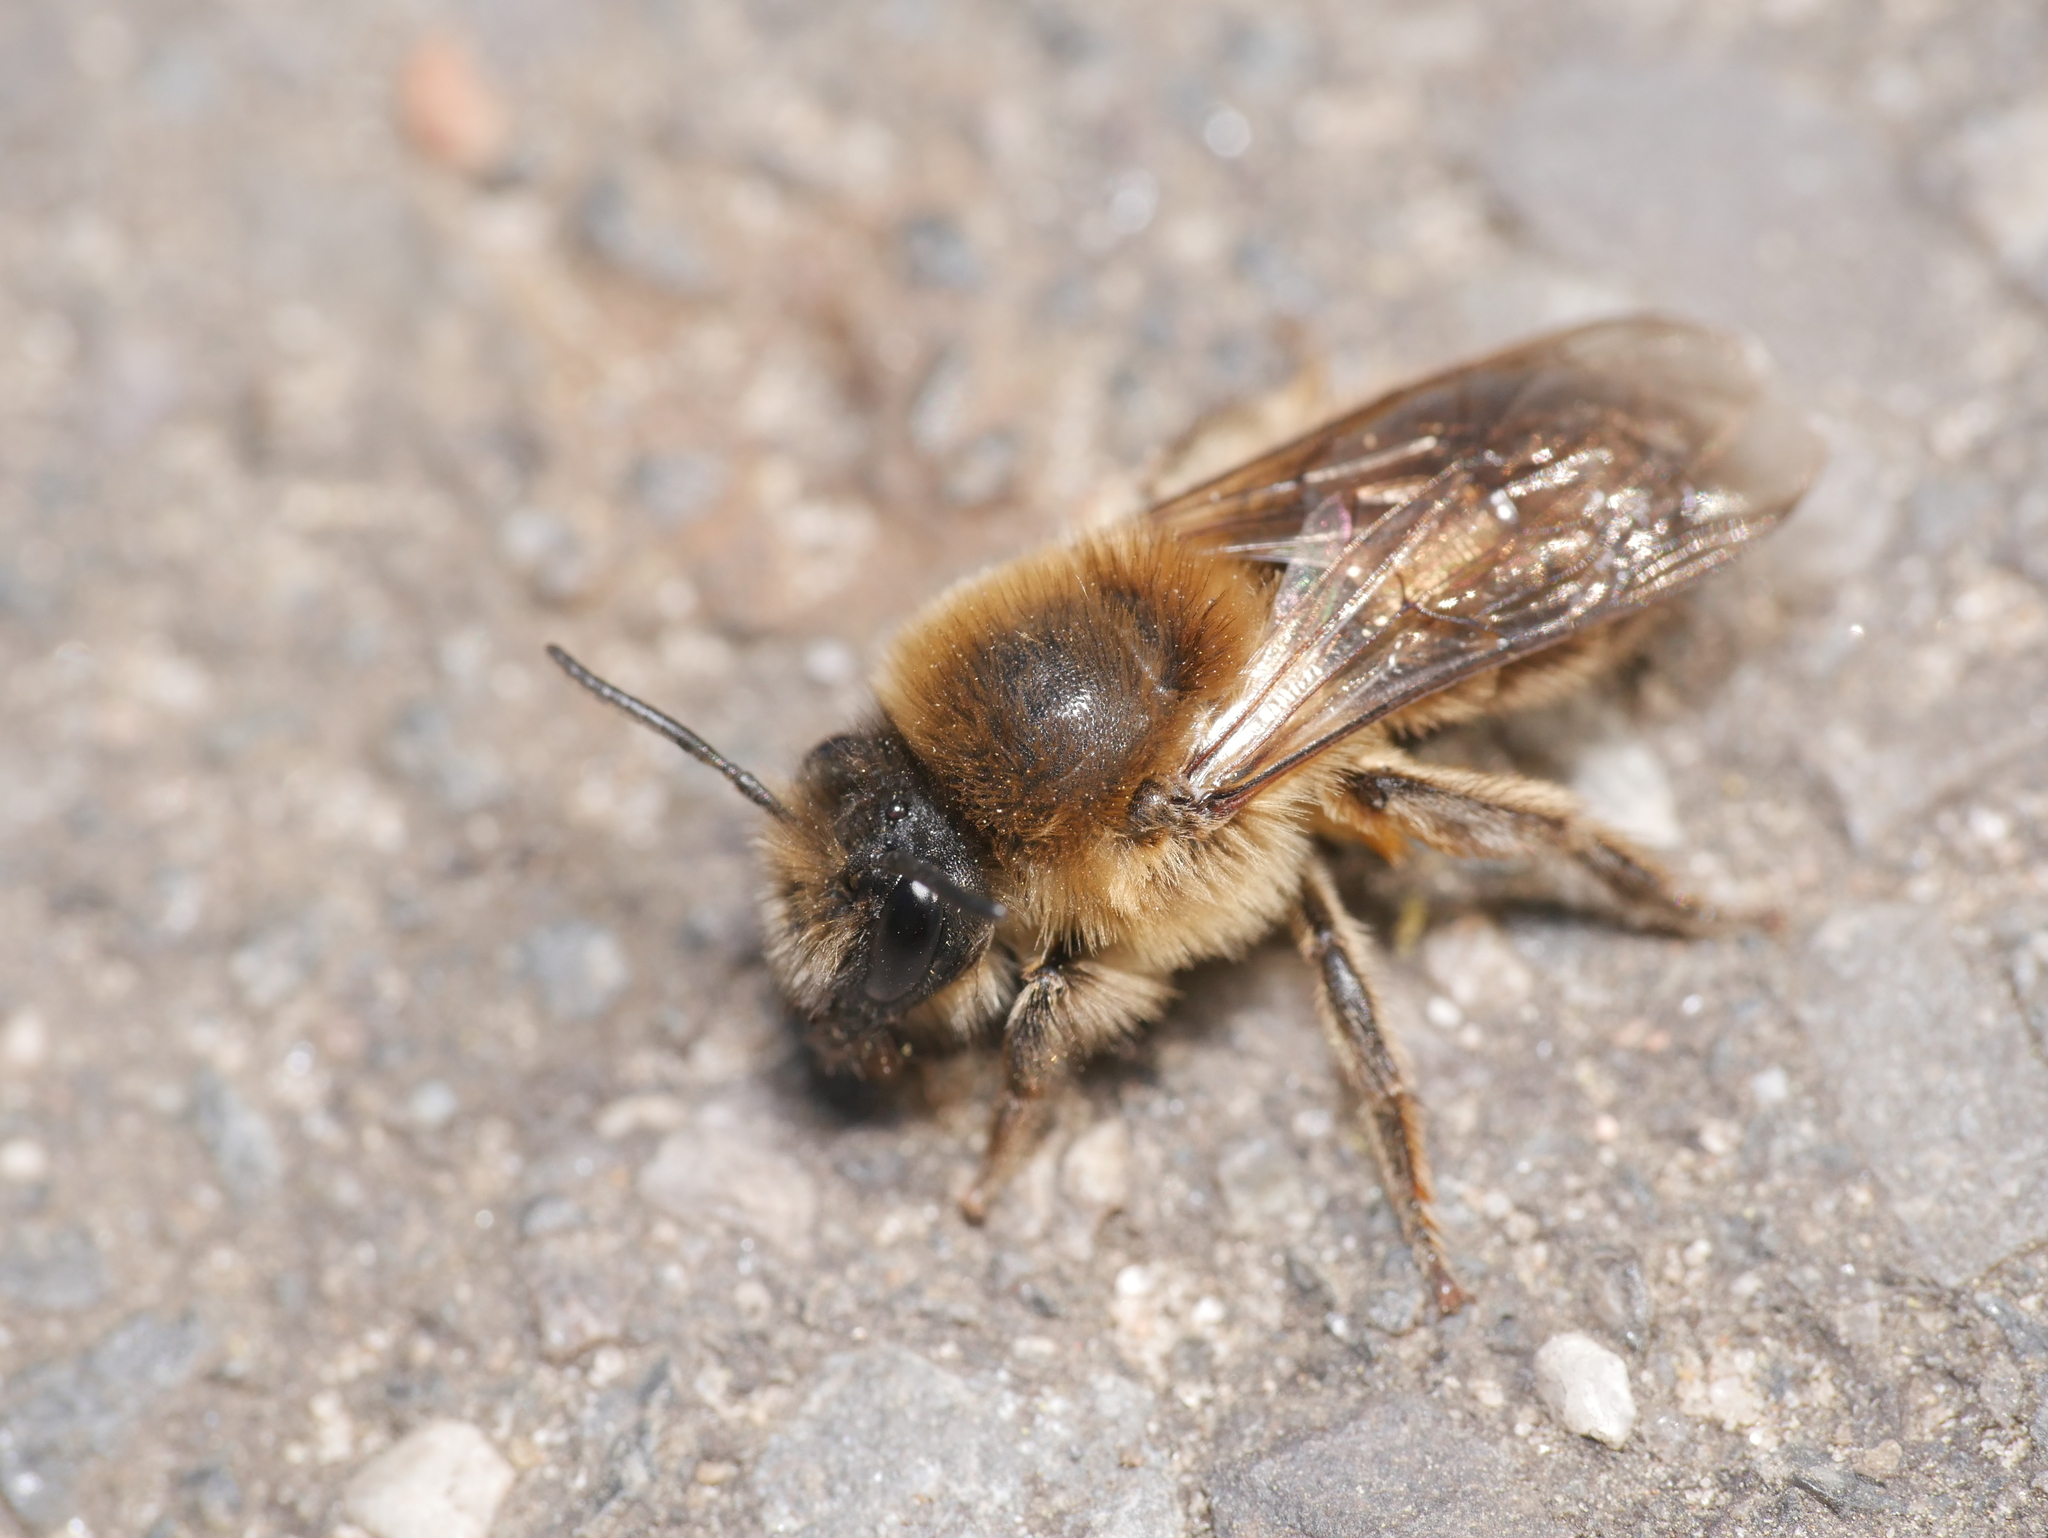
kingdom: Animalia
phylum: Arthropoda
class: Insecta
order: Hymenoptera
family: Colletidae
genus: Colletes
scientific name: Colletes cunicularius
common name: Early colletes
